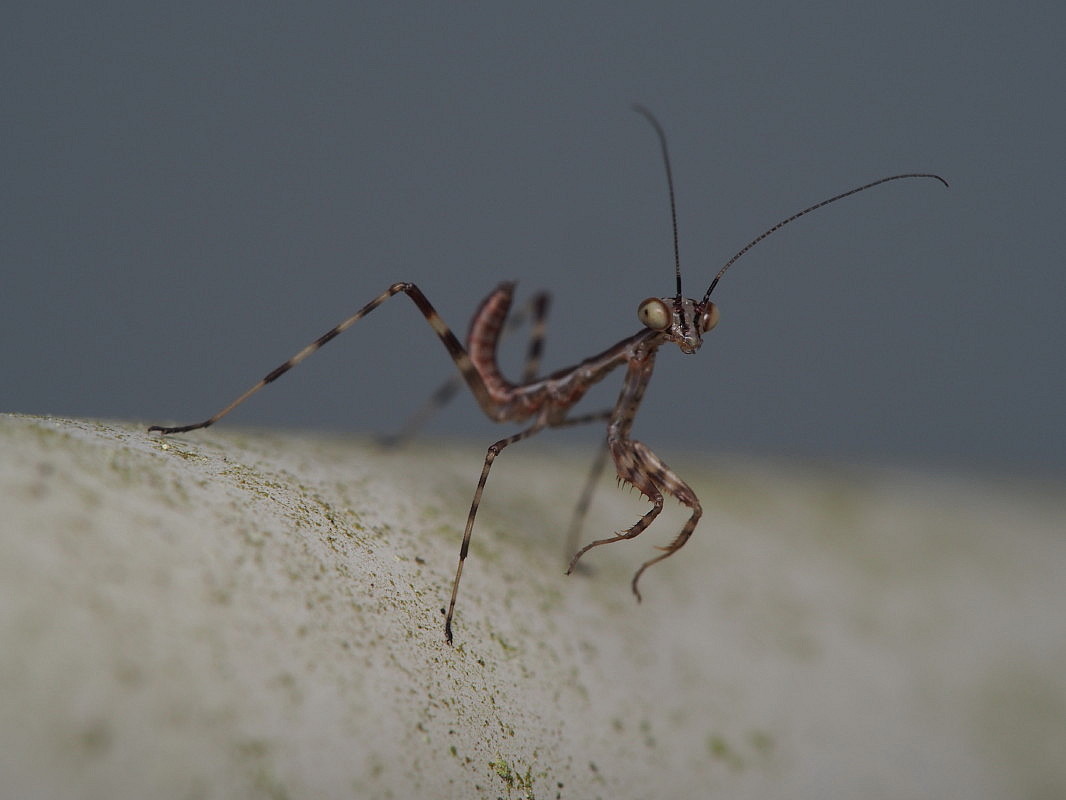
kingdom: Animalia
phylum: Arthropoda
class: Insecta
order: Mantodea
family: Miomantidae
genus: Miomantis
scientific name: Miomantis caffra
